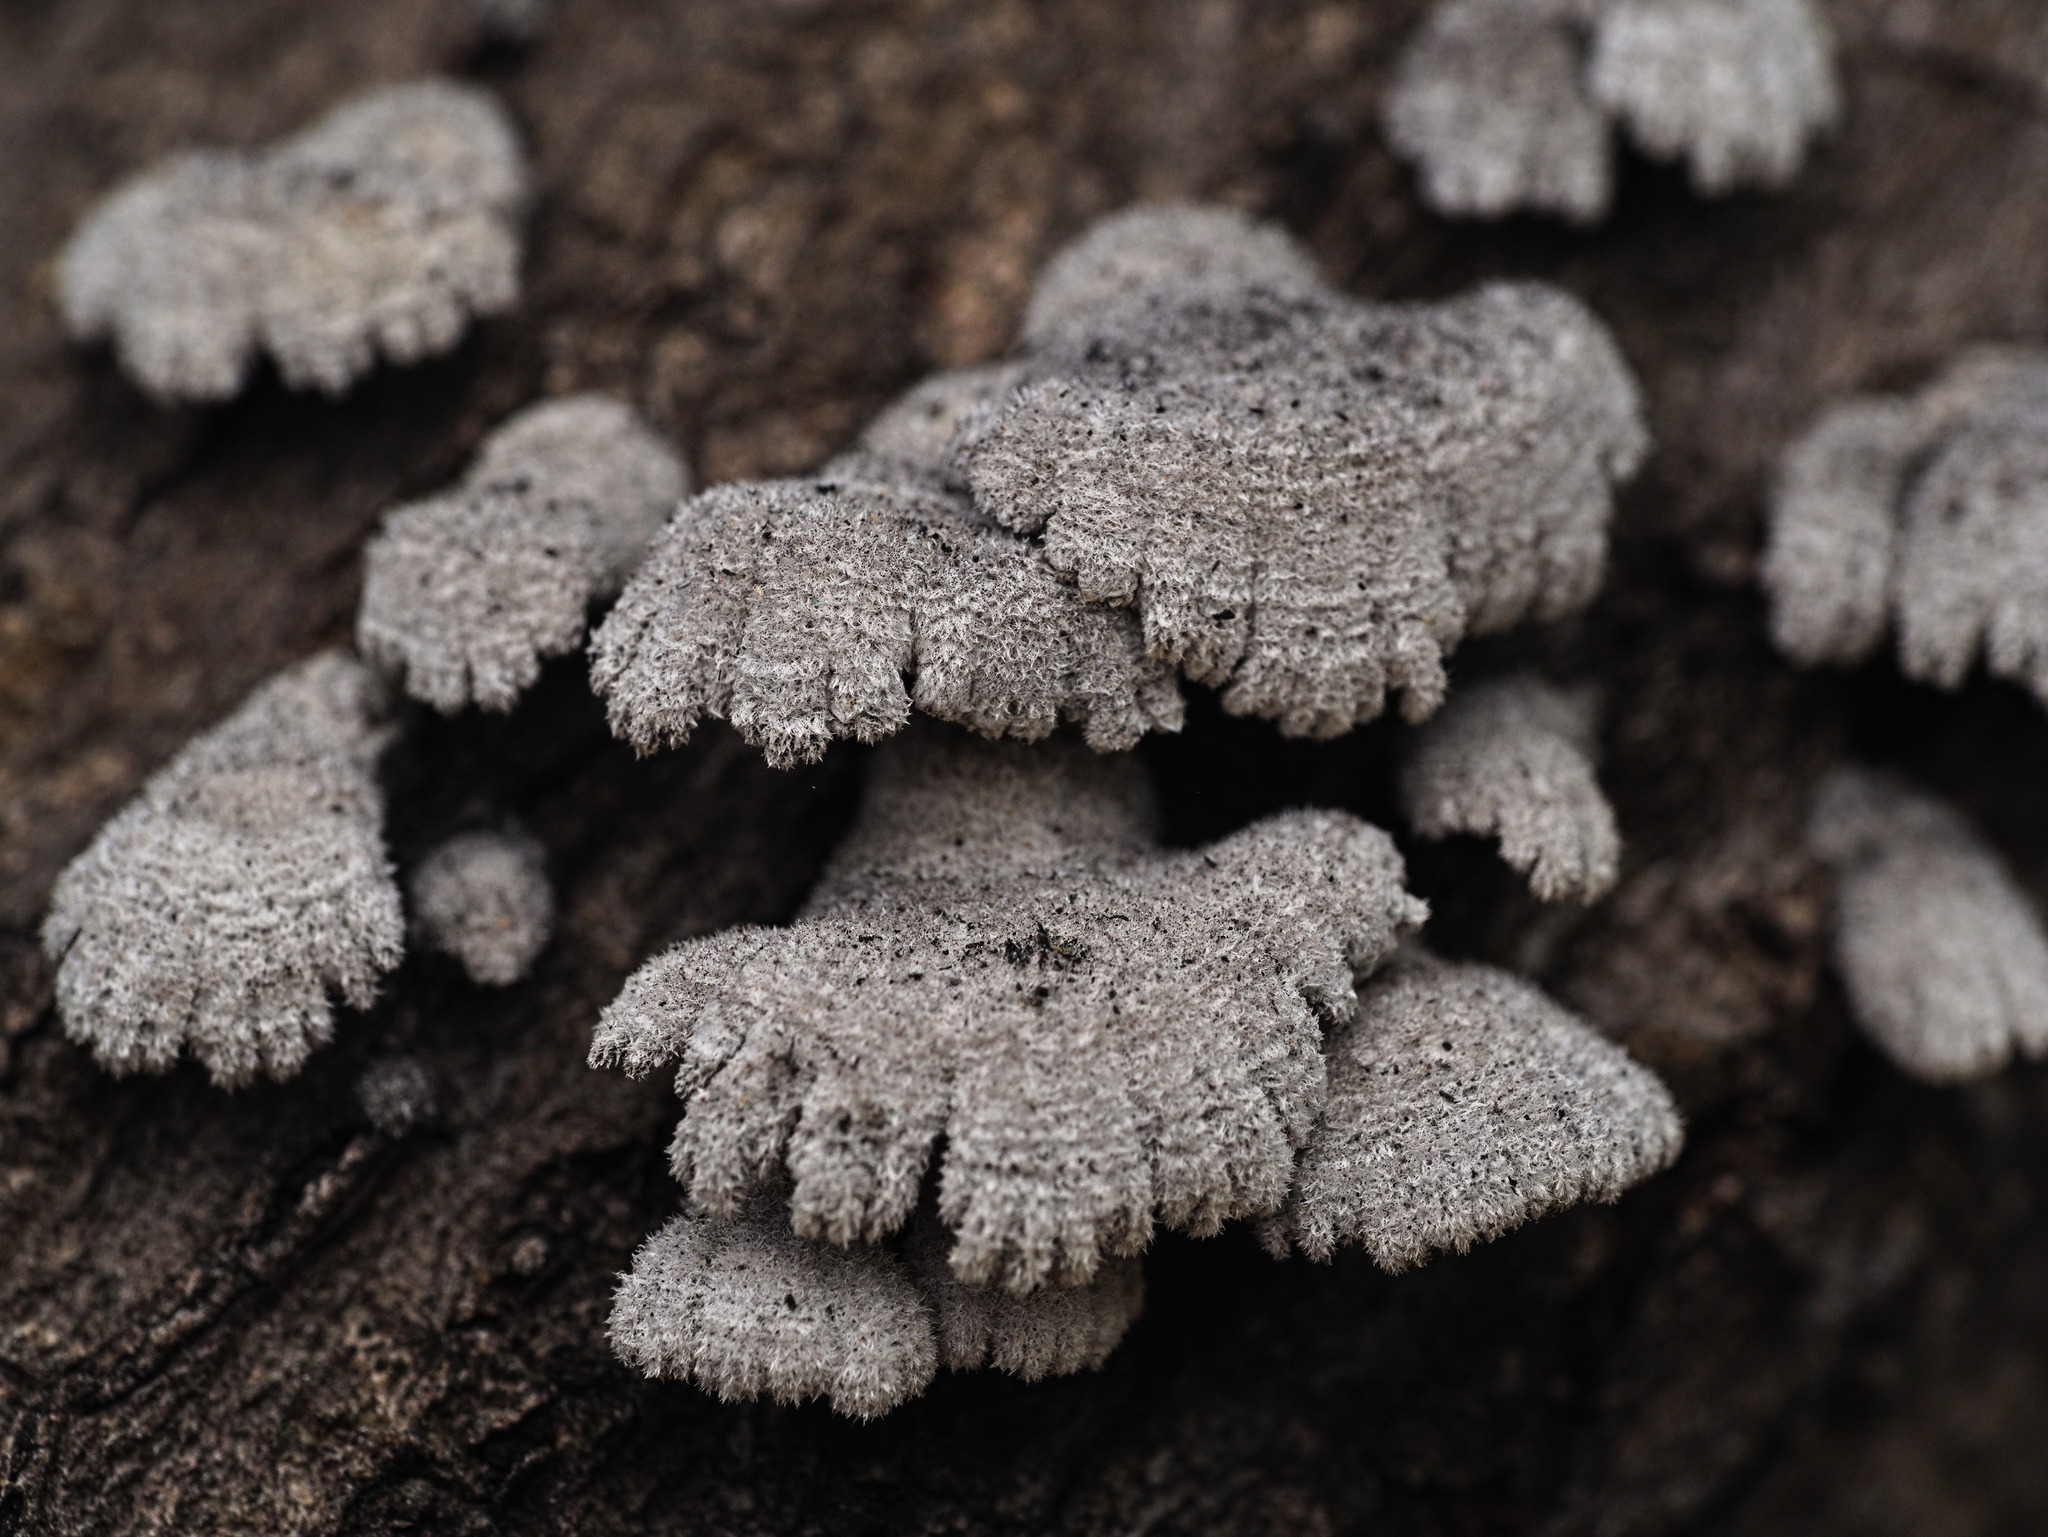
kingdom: Fungi
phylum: Basidiomycota
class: Agaricomycetes
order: Agaricales
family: Schizophyllaceae
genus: Schizophyllum
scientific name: Schizophyllum commune
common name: Common porecrust
